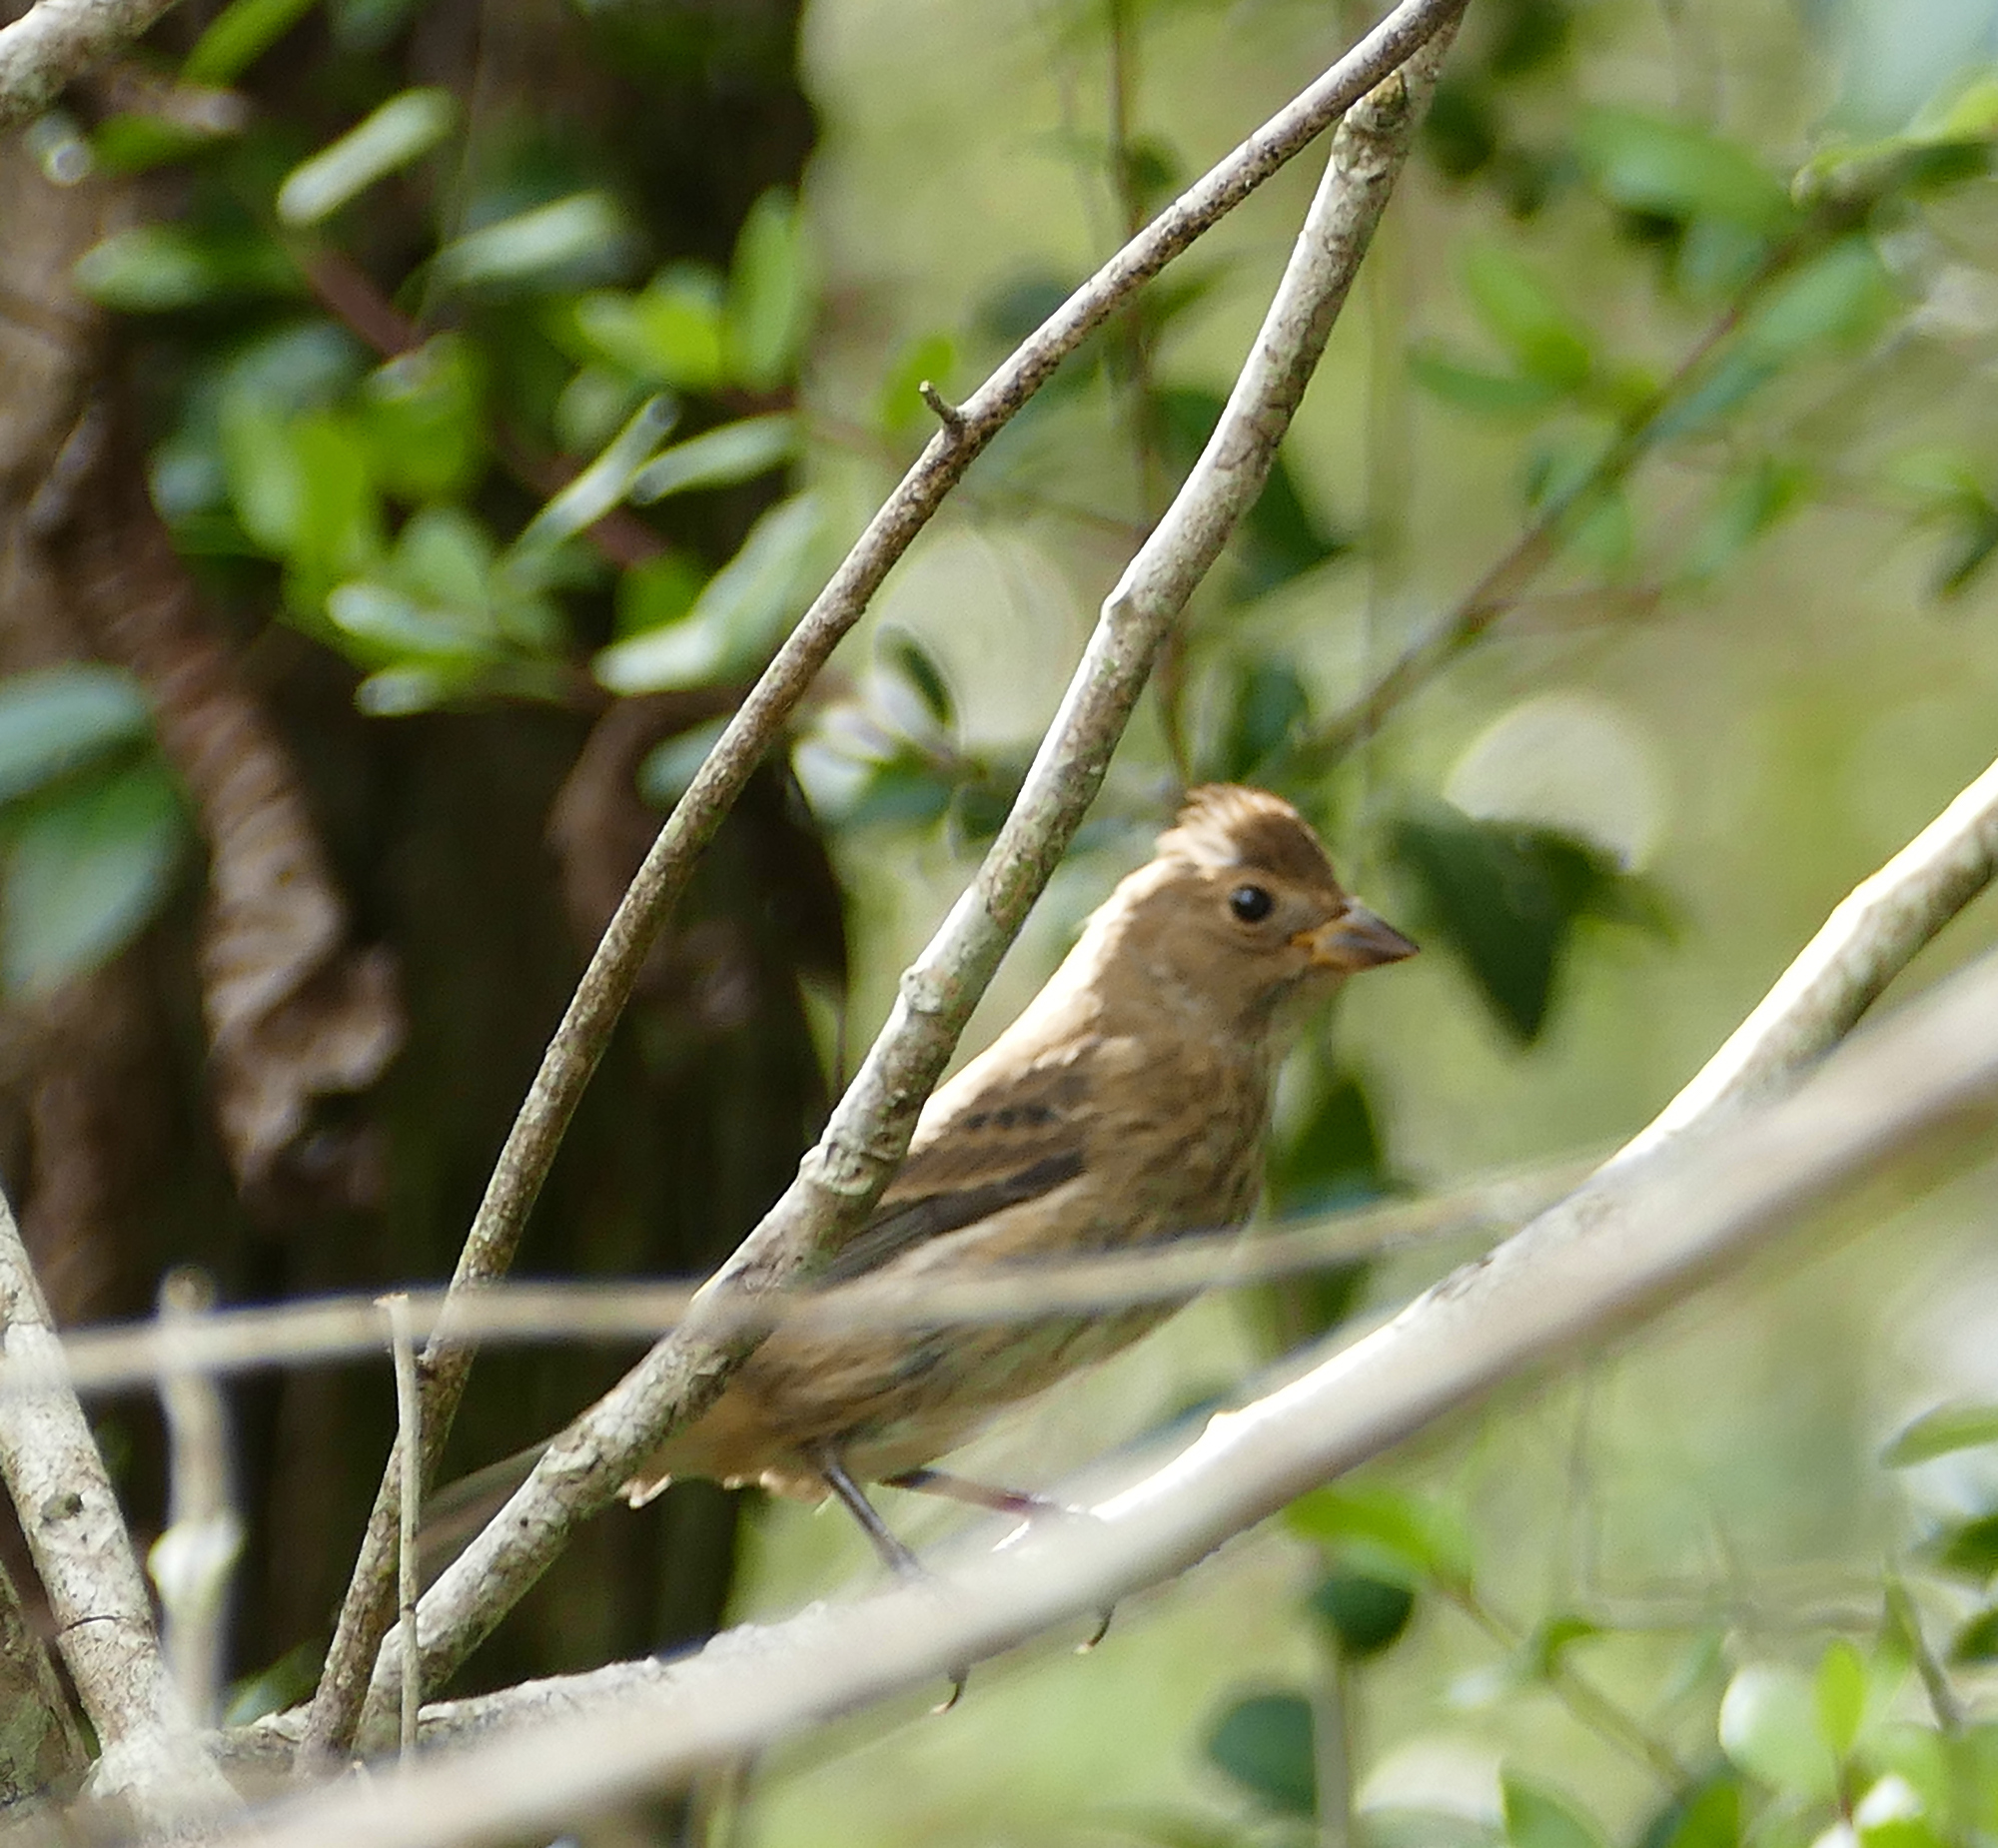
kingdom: Animalia
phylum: Chordata
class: Aves
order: Passeriformes
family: Cardinalidae
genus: Passerina
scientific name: Passerina cyanea
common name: Indigo bunting
